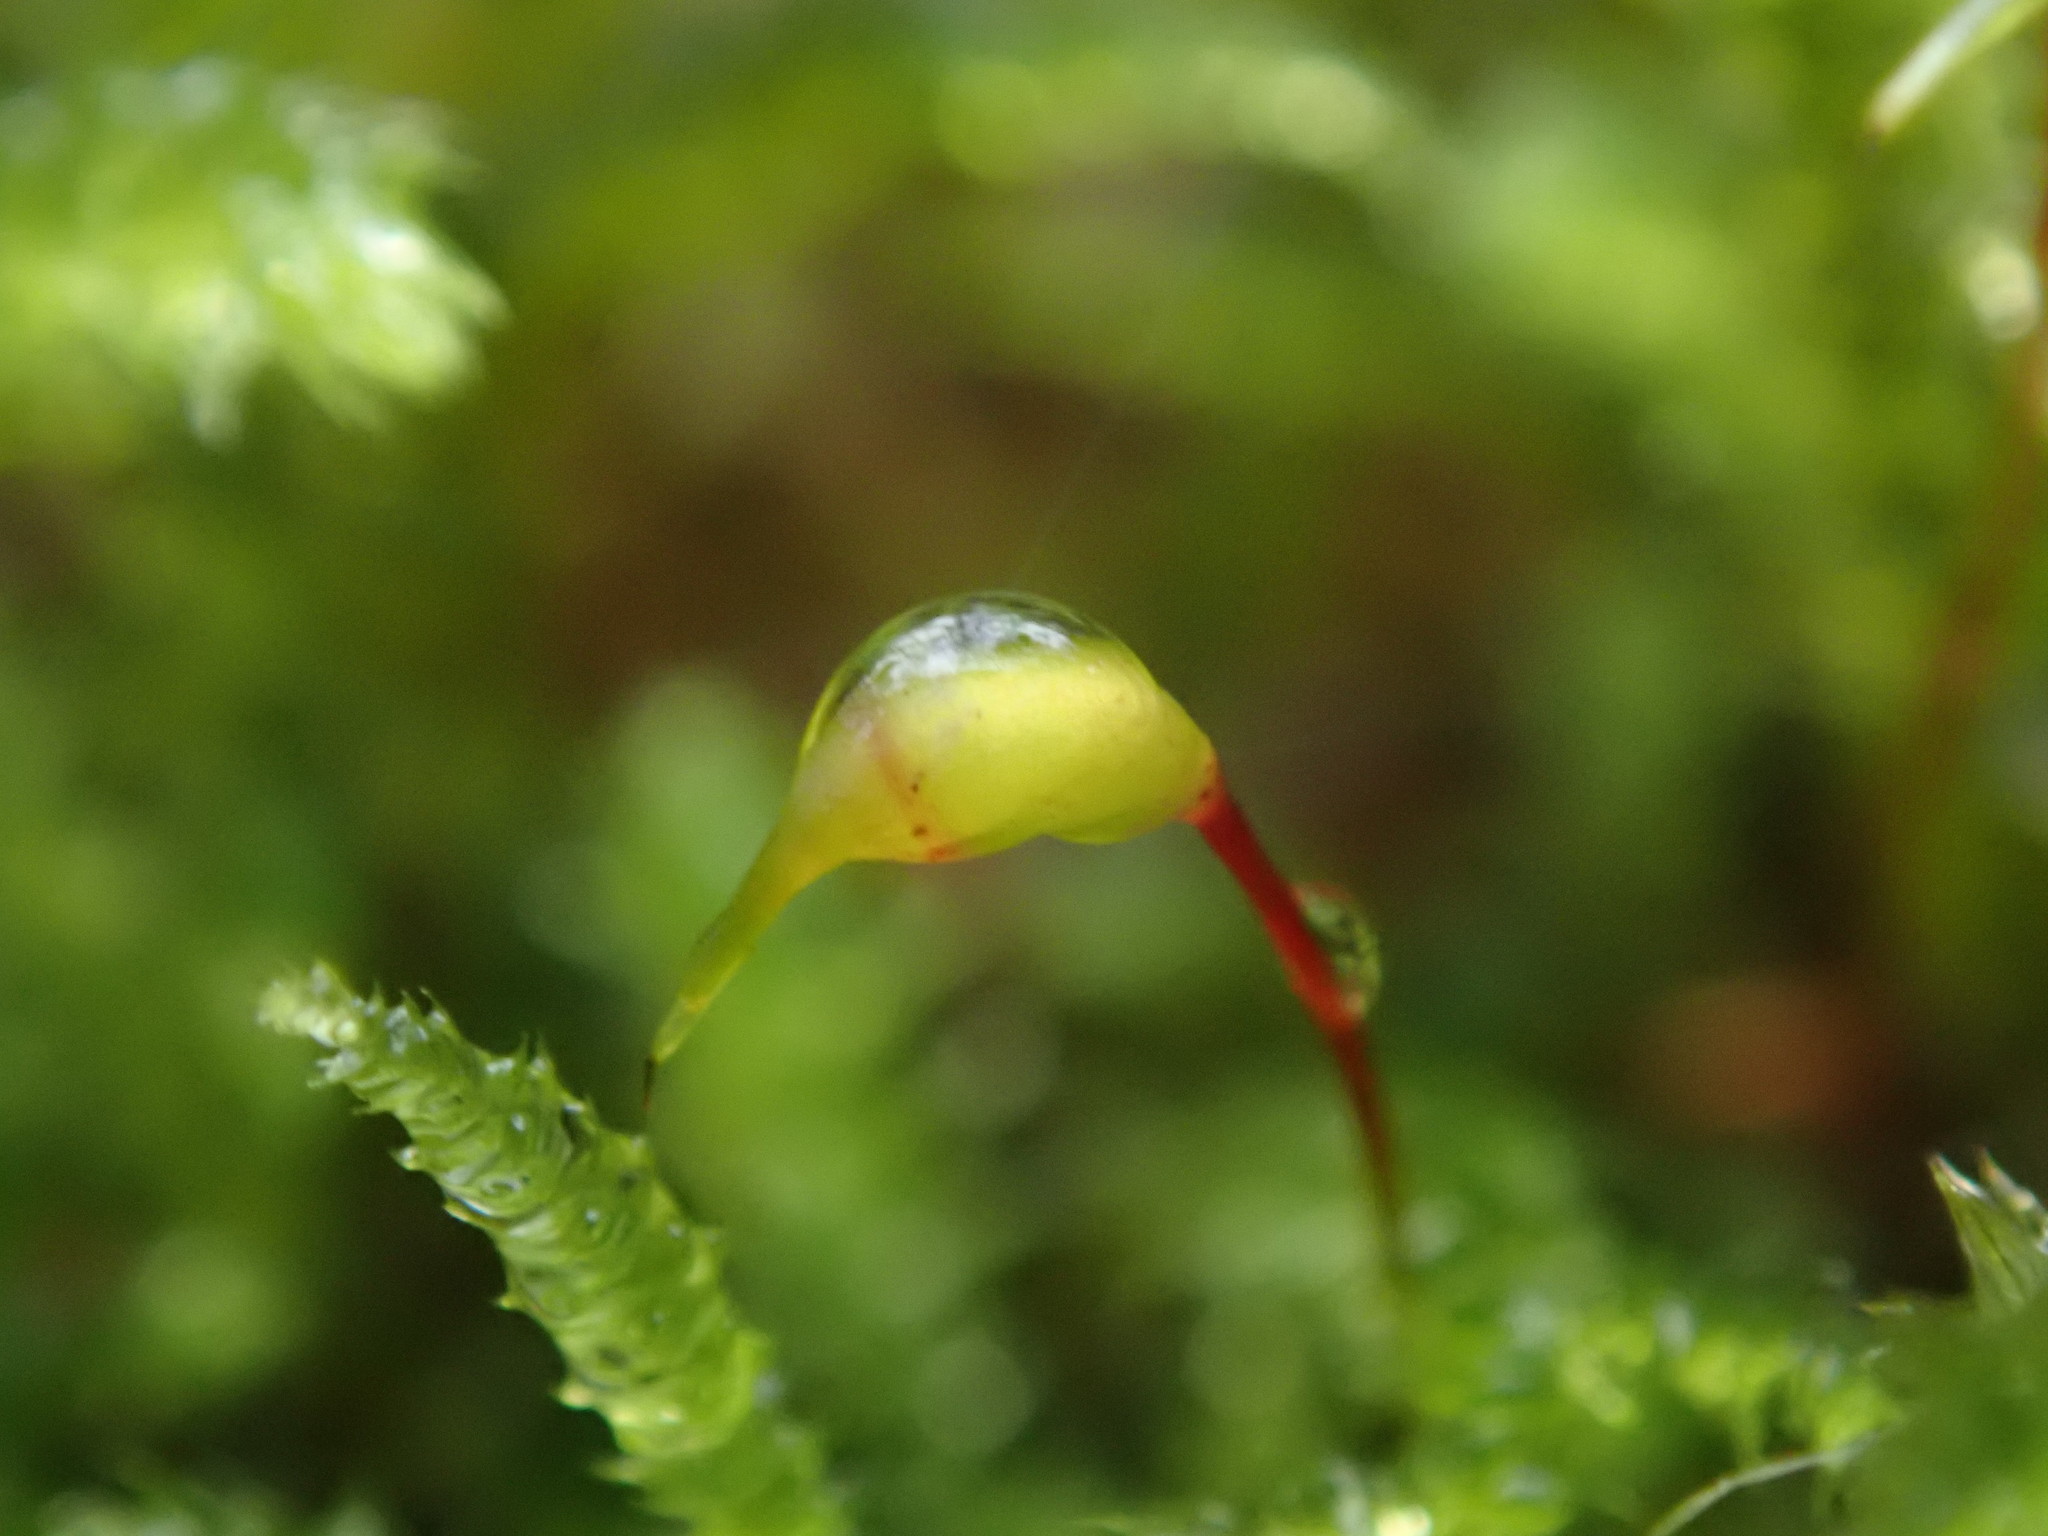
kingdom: Plantae
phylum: Bryophyta
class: Bryopsida
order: Hypnales
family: Brachytheciaceae
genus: Eurhynchium
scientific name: Eurhynchium striatum
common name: Common striated feather-moss
